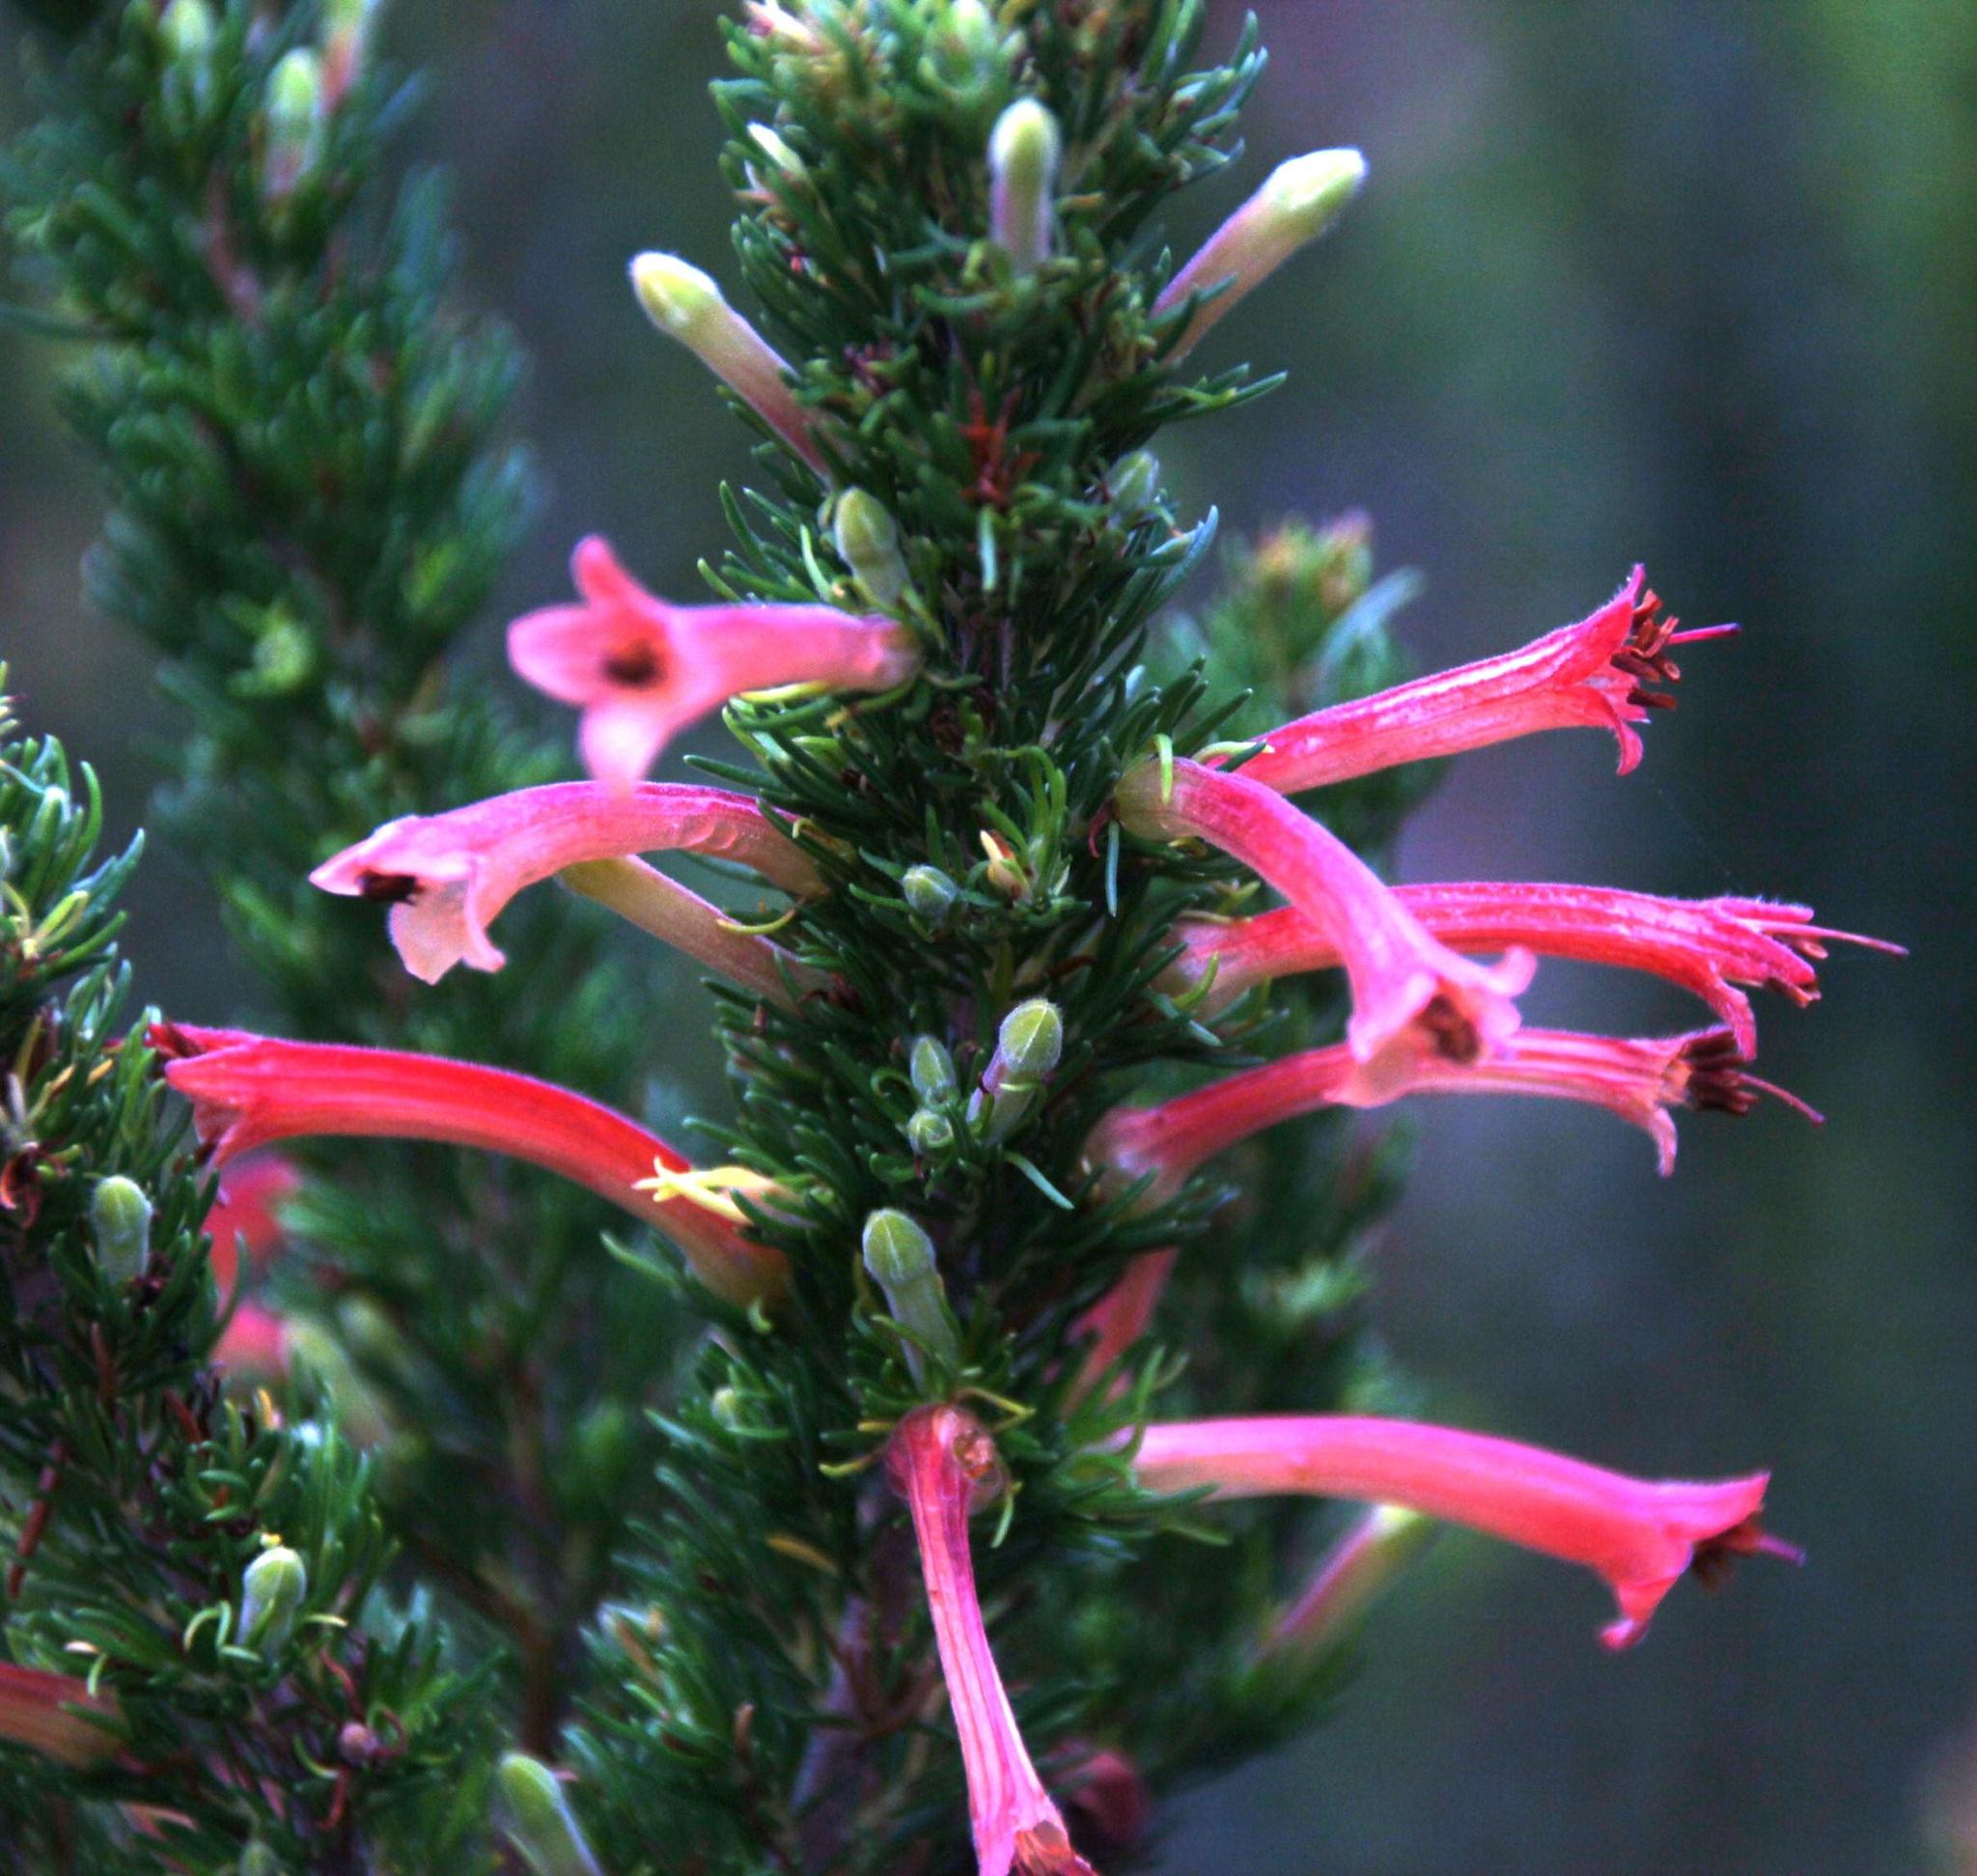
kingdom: Plantae
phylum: Tracheophyta
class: Magnoliopsida
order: Ericales
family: Ericaceae
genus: Erica
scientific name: Erica curviflora
